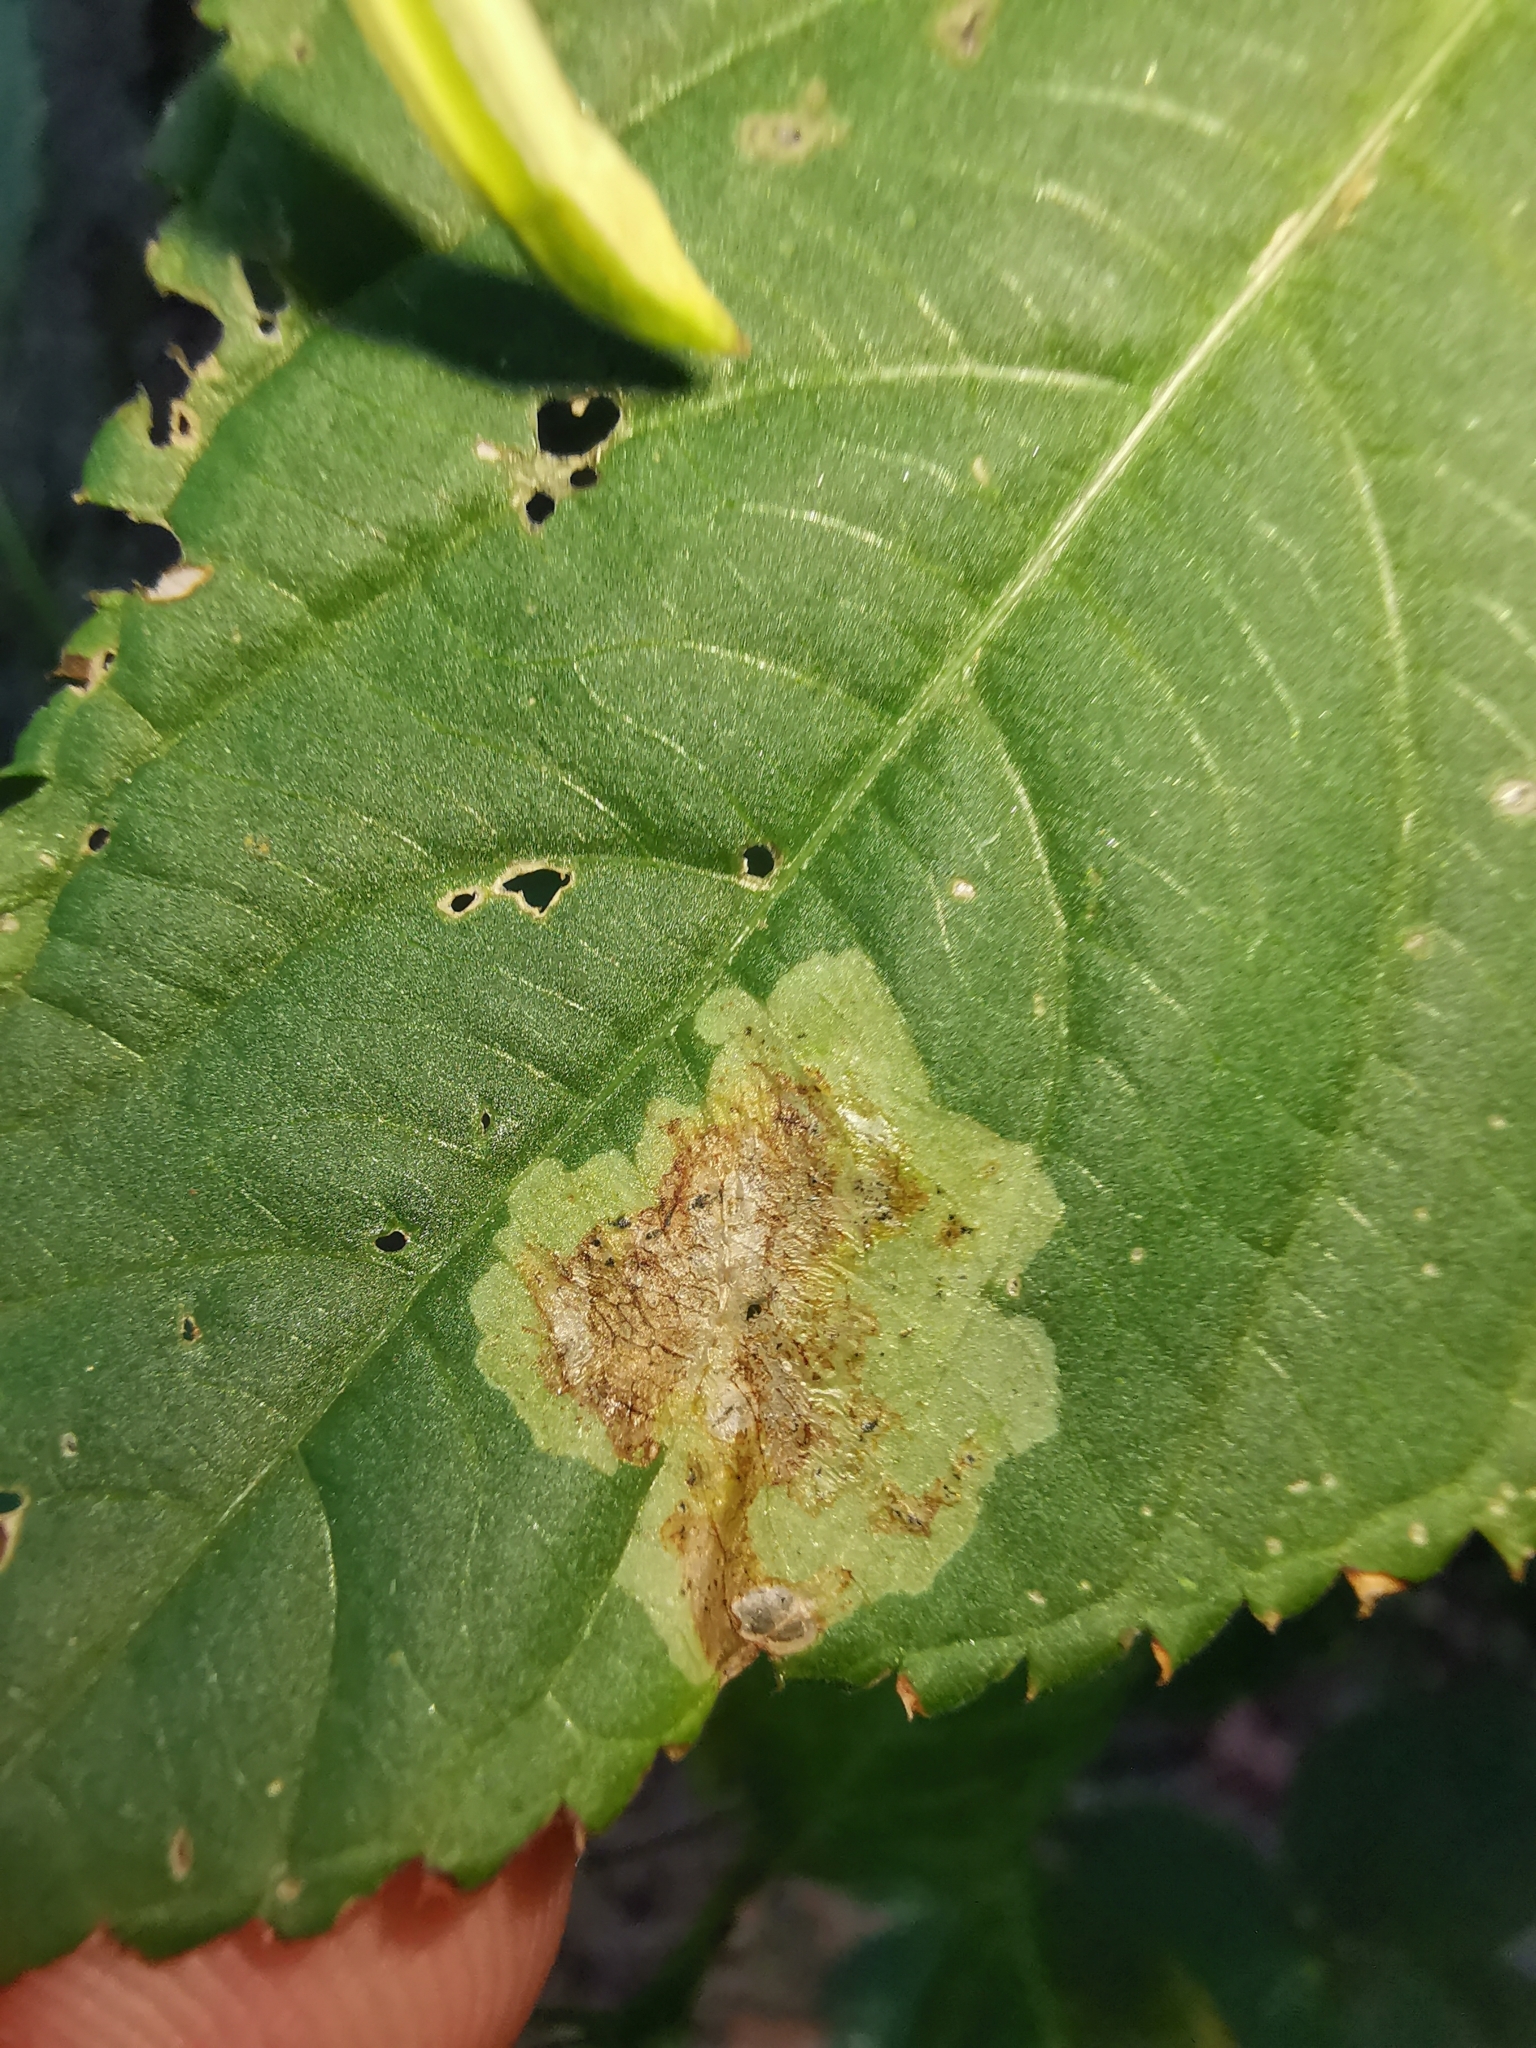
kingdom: Animalia
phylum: Arthropoda
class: Insecta
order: Diptera
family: Agromyzidae
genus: Phytoliriomyza
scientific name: Phytoliriomyza melampyga
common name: Jewelweed leaf-miner fly
